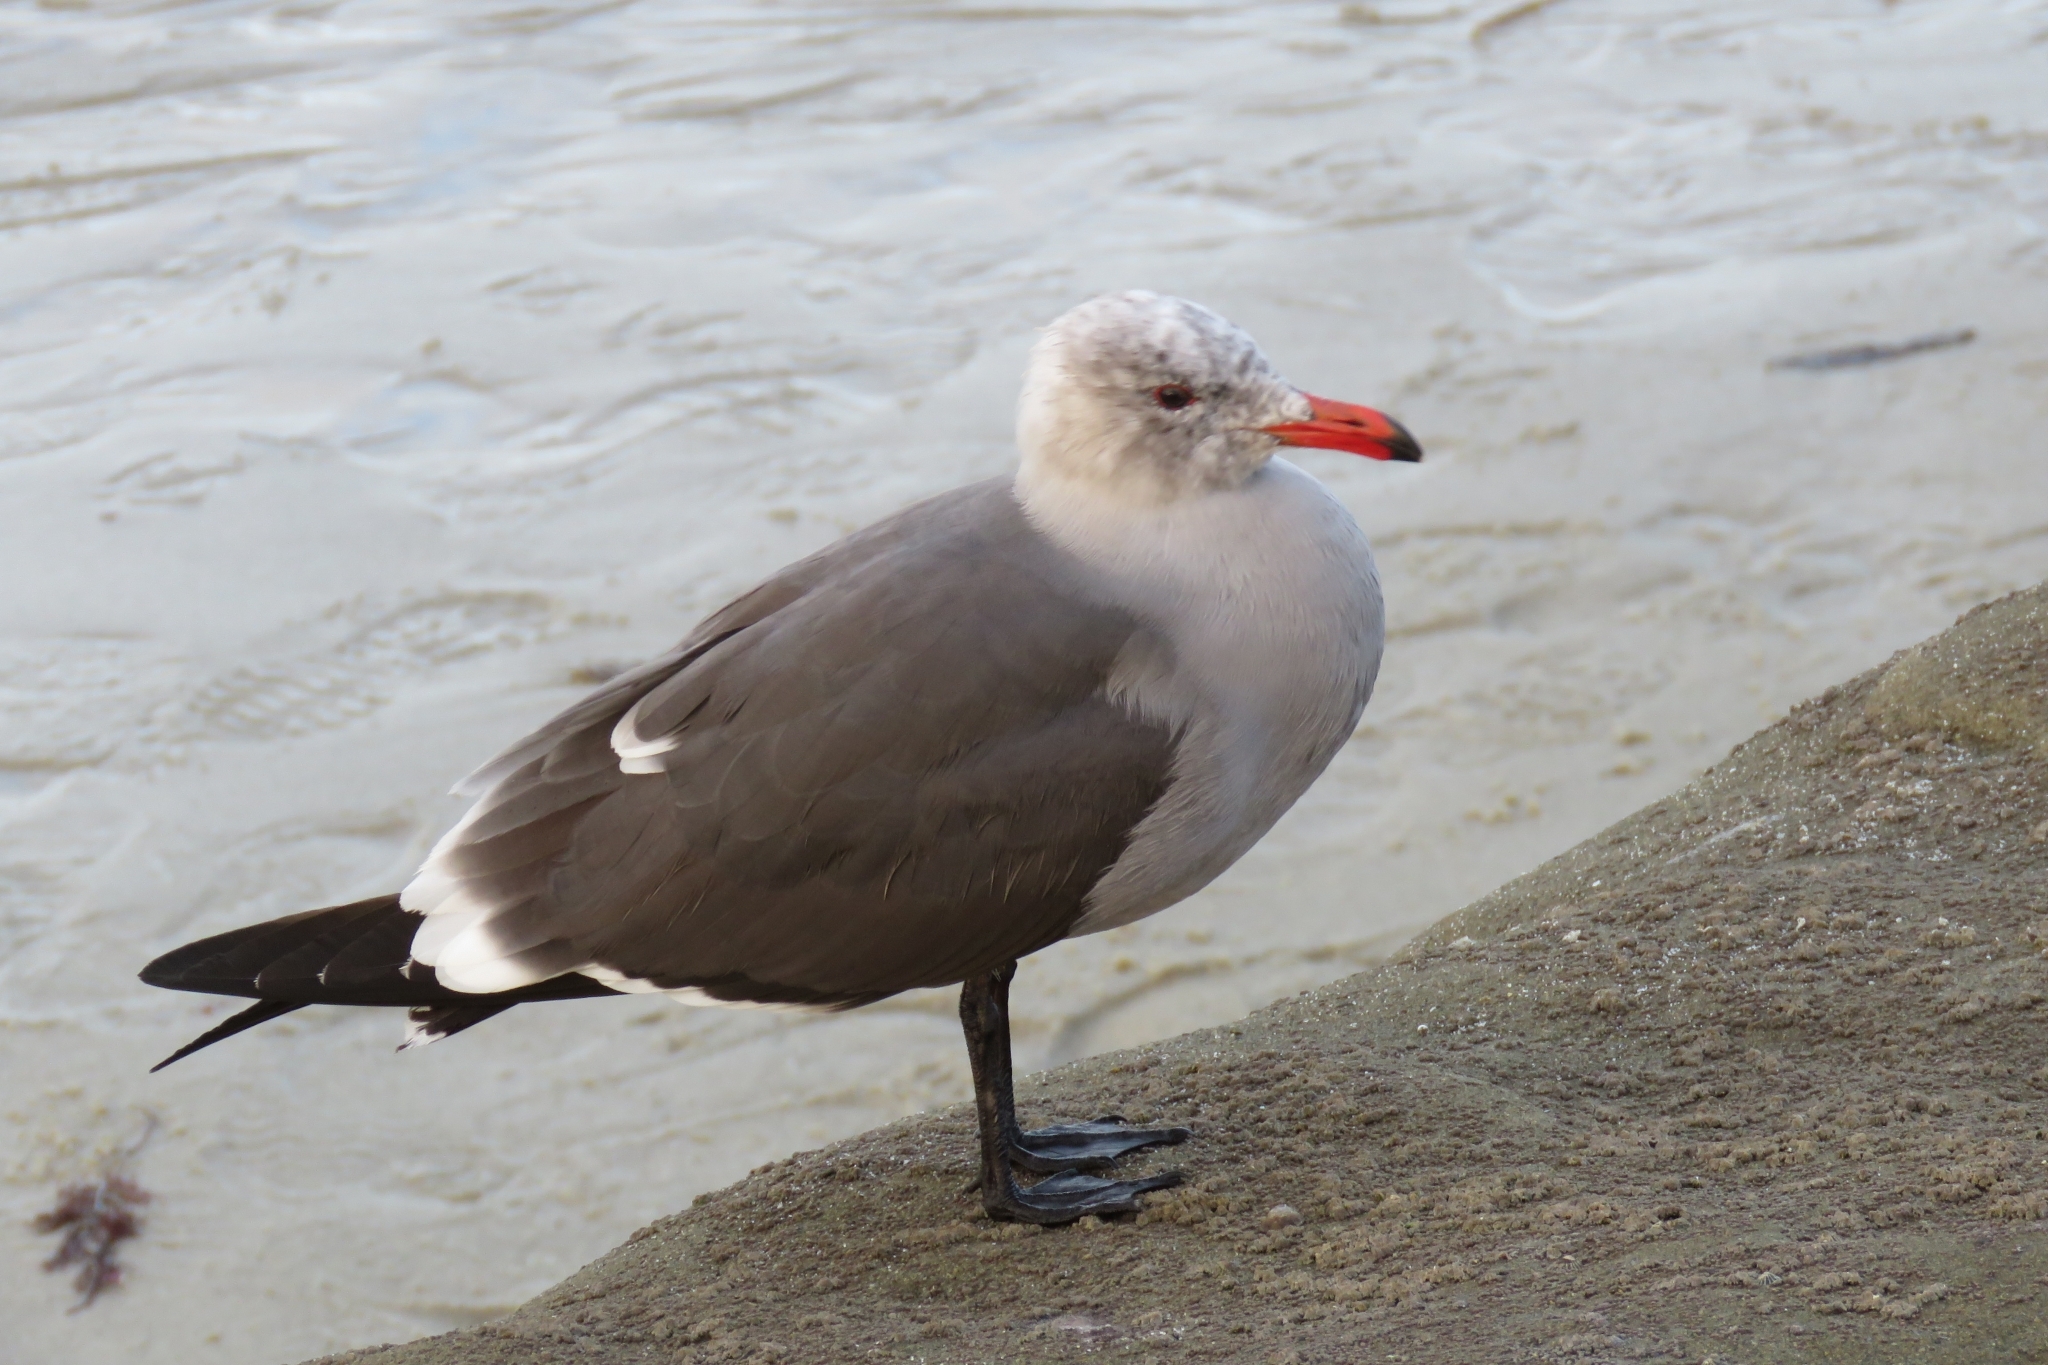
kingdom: Animalia
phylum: Chordata
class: Aves
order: Charadriiformes
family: Laridae
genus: Larus
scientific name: Larus heermanni
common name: Heermann's gull
